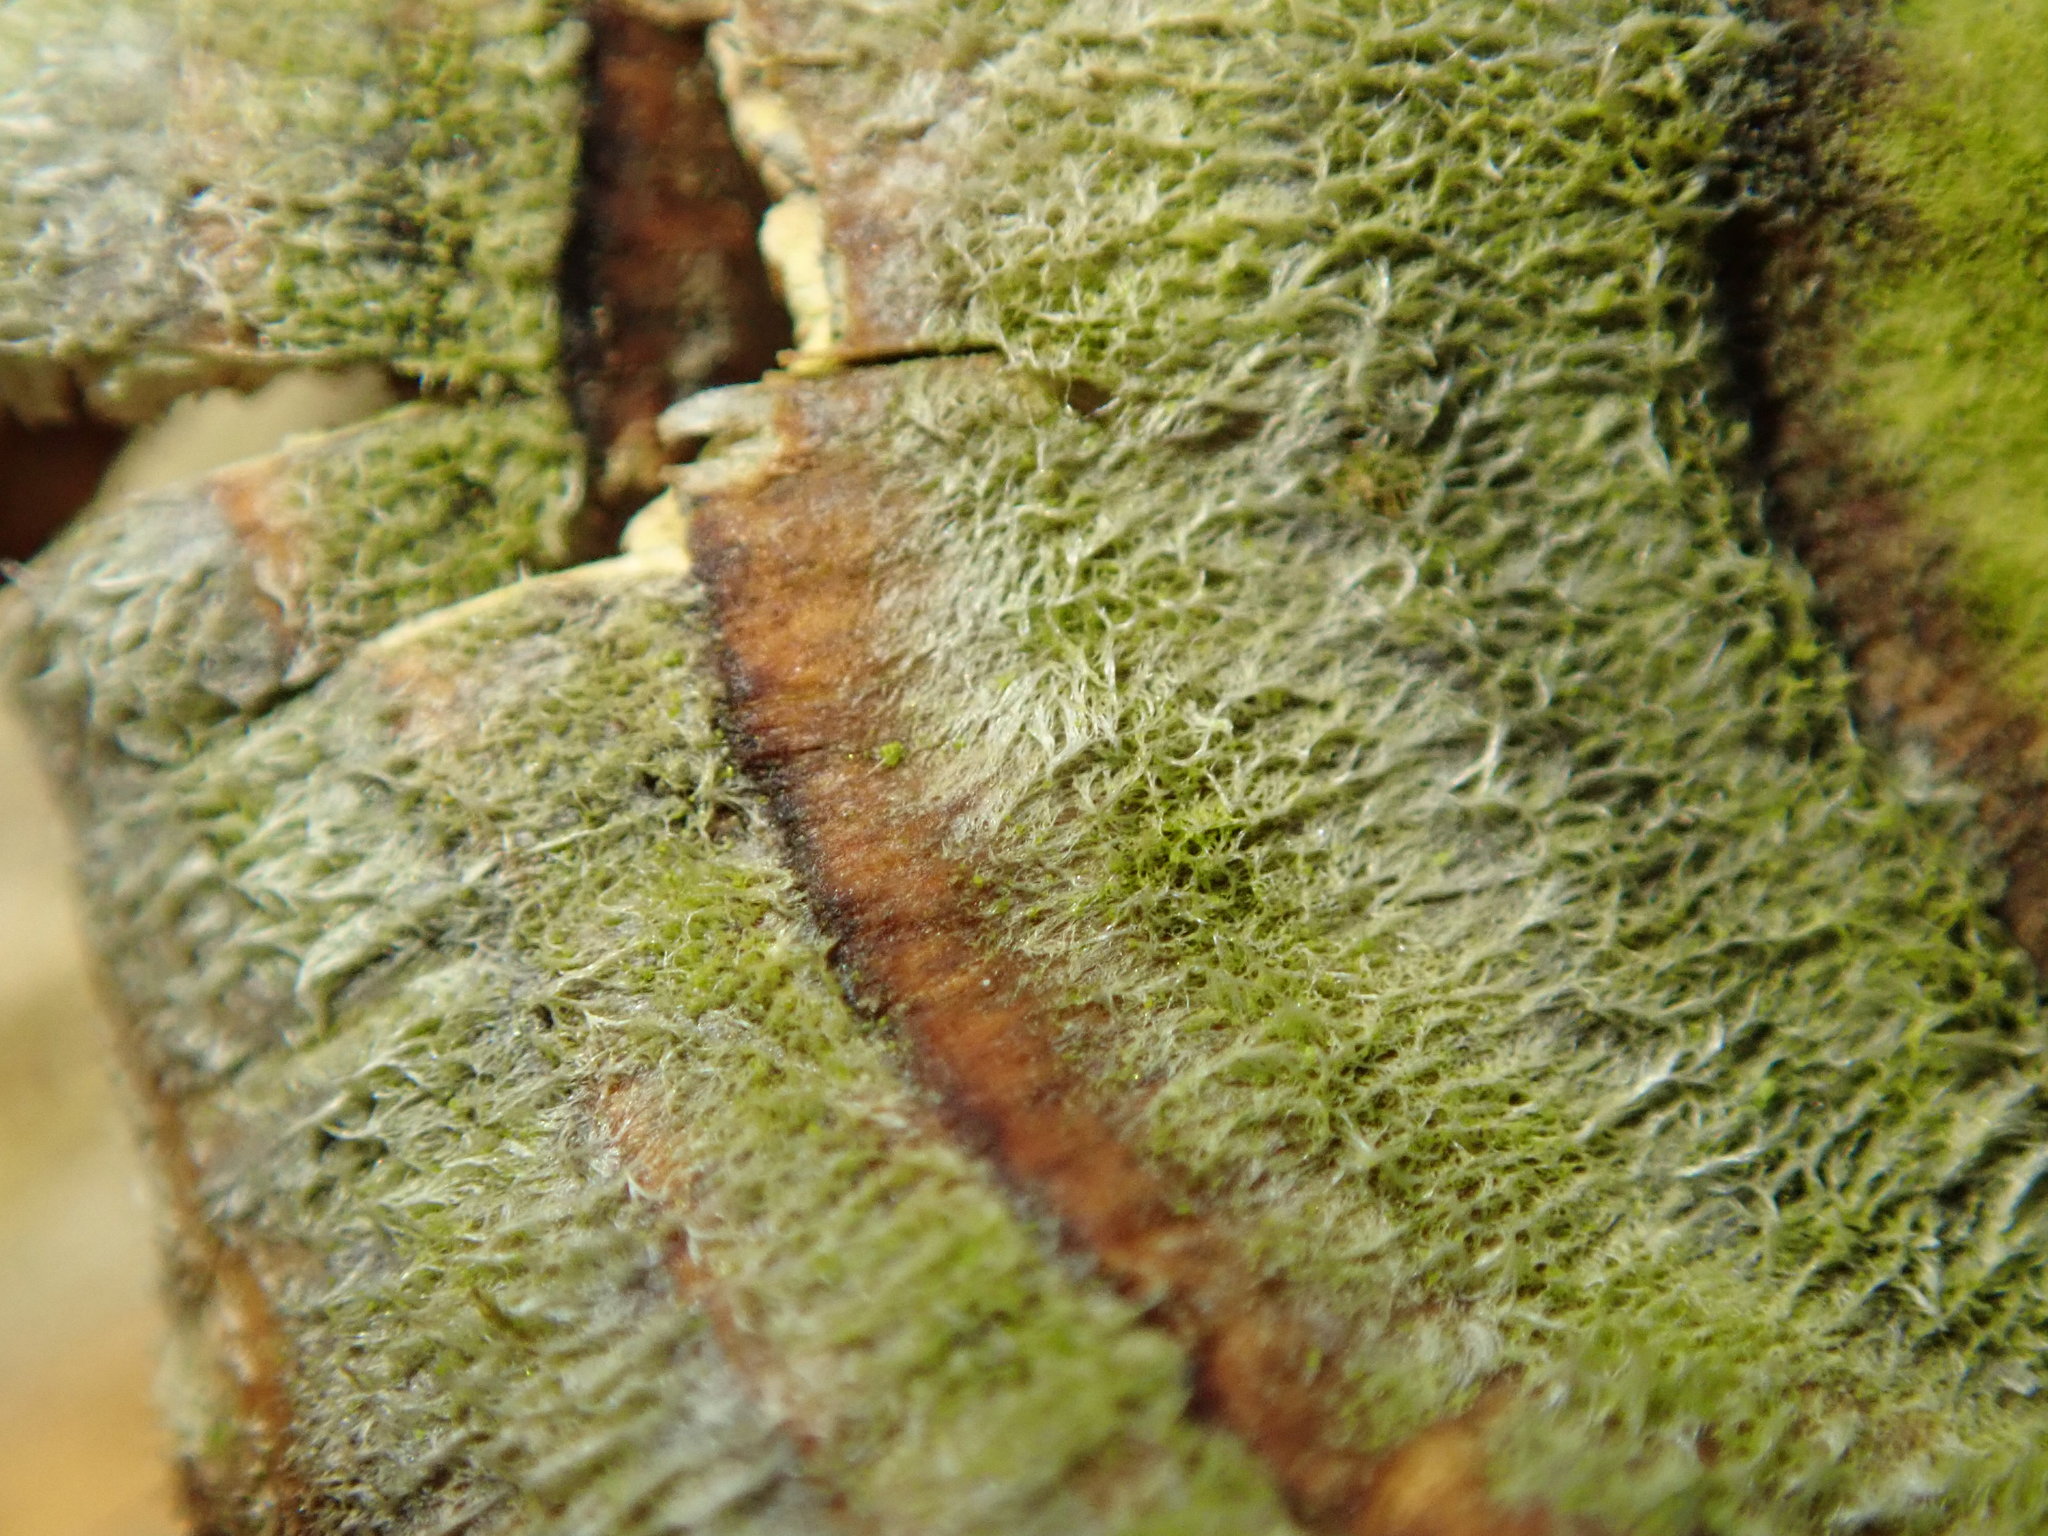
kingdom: Fungi
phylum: Basidiomycota
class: Agaricomycetes
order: Polyporales
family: Polyporaceae
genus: Trametes
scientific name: Trametes versicolor
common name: Turkeytail
